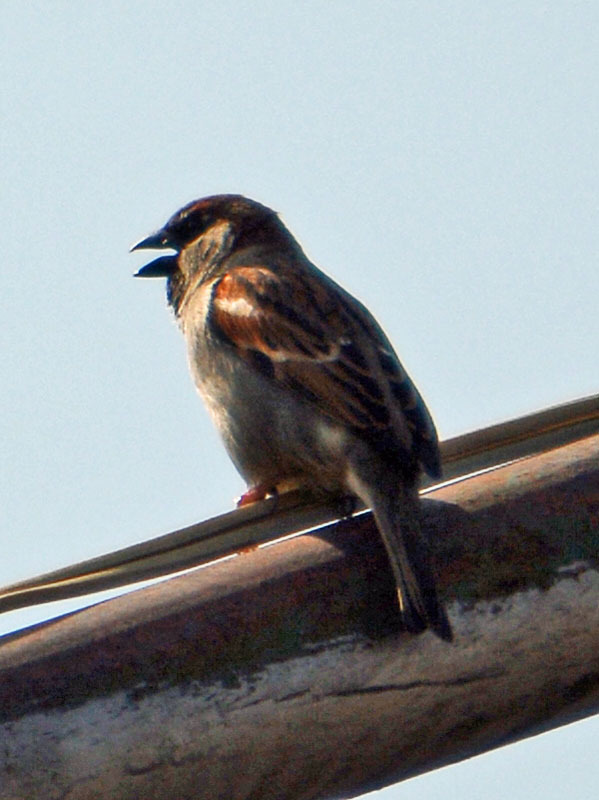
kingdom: Animalia
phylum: Chordata
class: Aves
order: Passeriformes
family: Passeridae
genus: Passer
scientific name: Passer domesticus
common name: House sparrow
